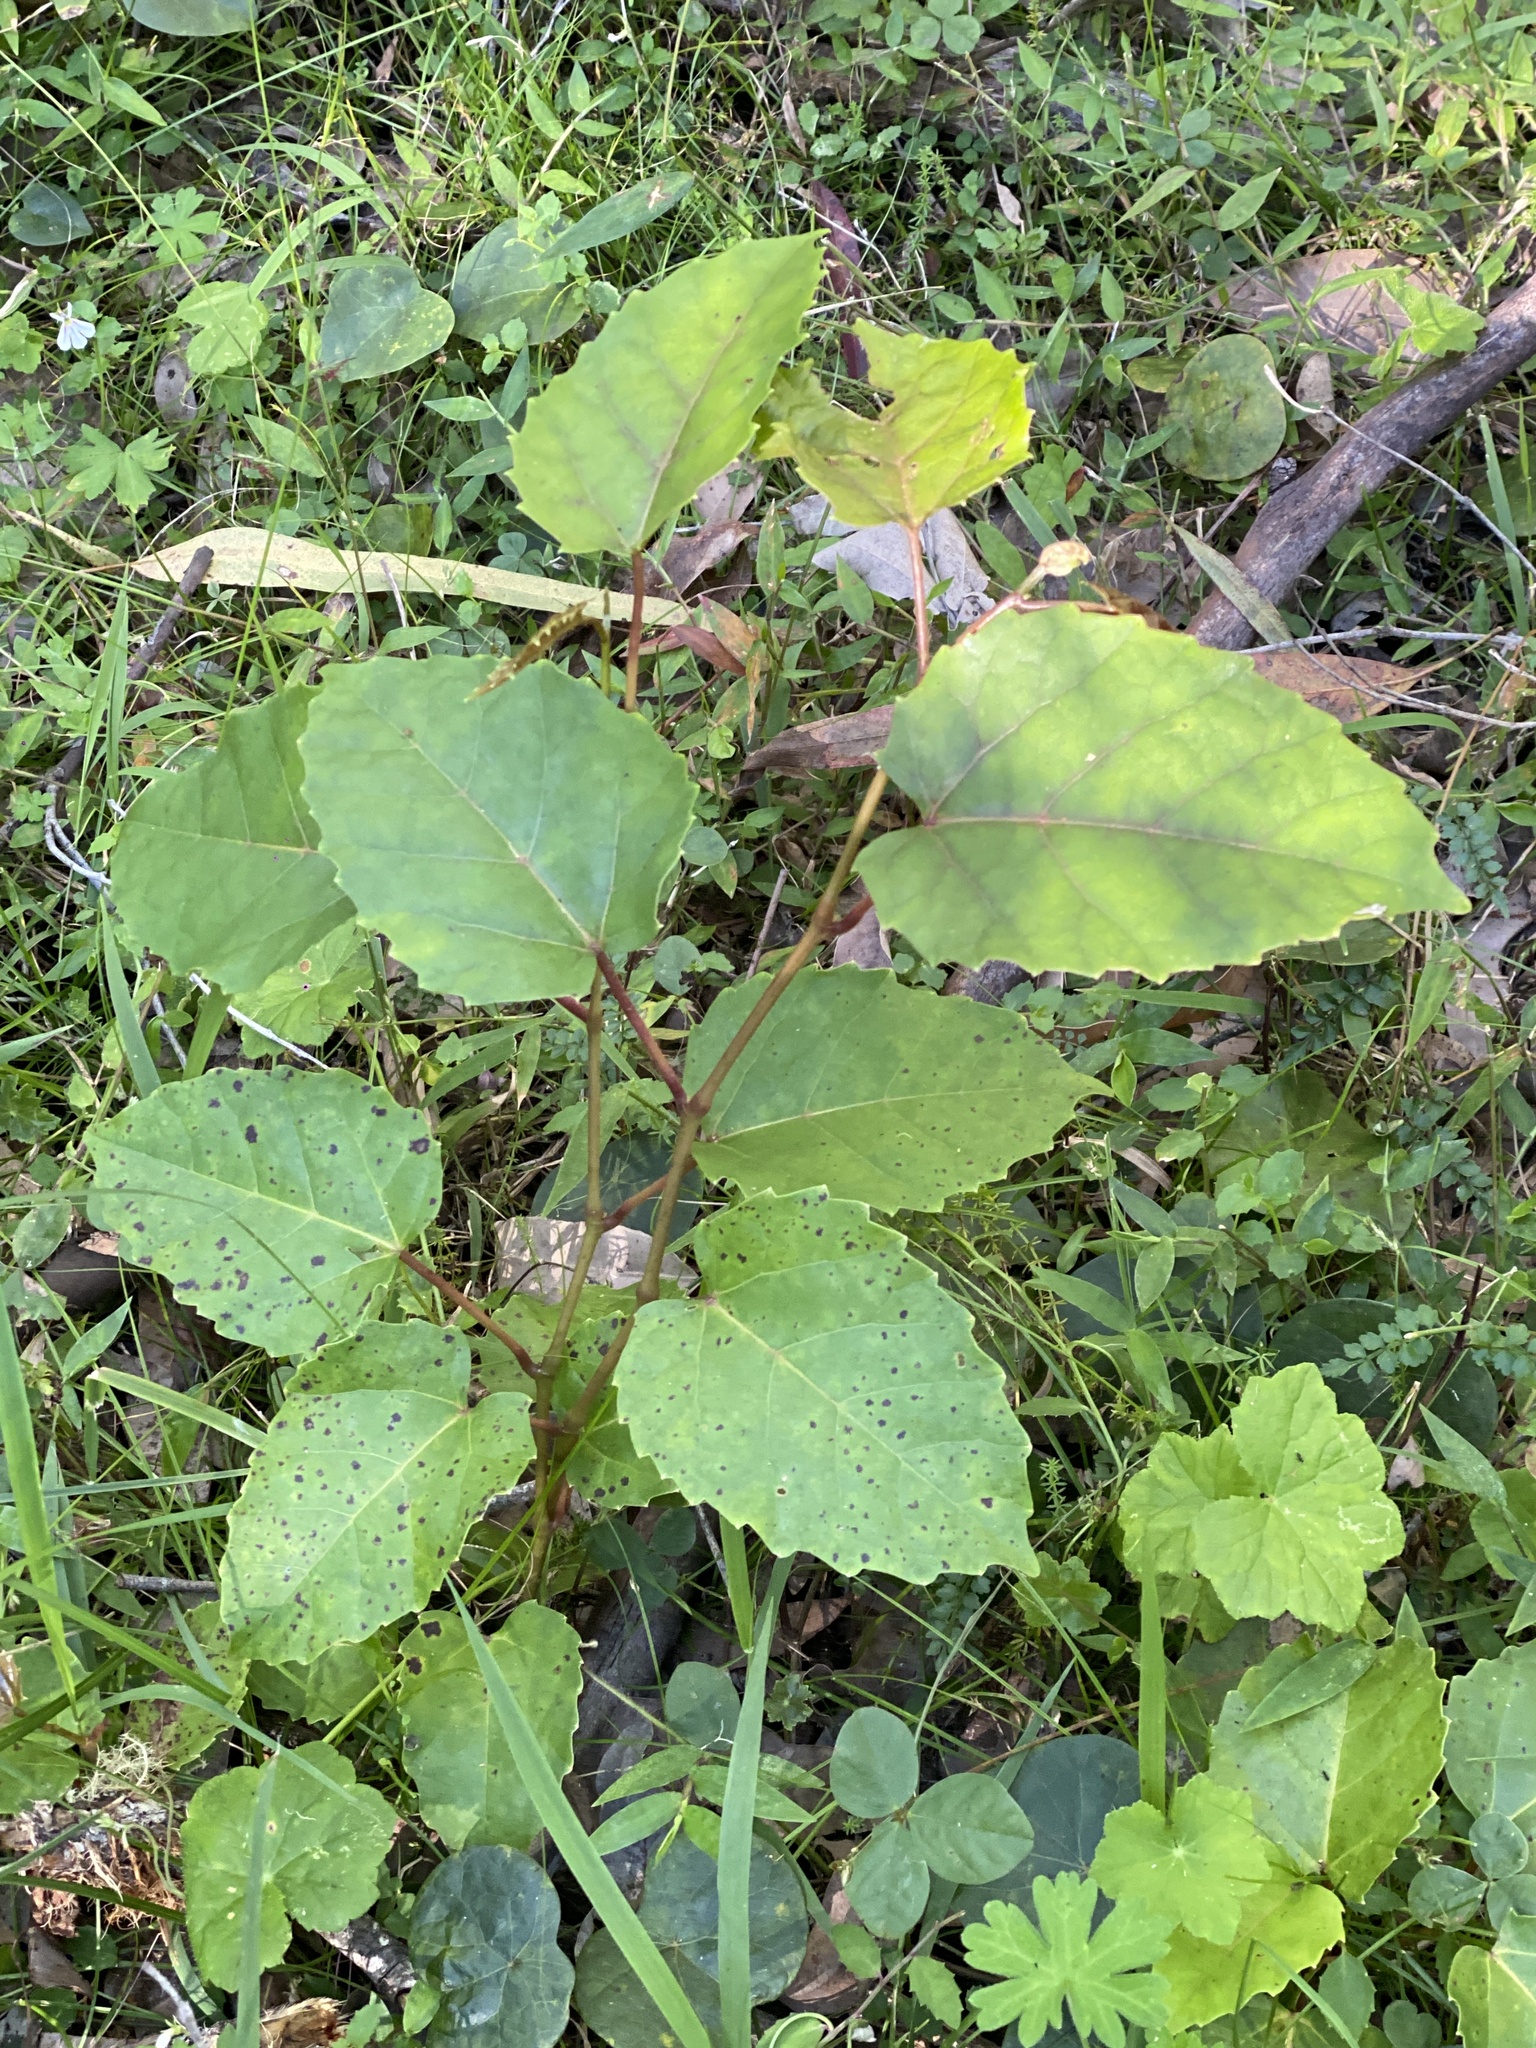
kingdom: Plantae
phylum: Tracheophyta
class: Magnoliopsida
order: Vitales
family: Vitaceae
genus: Cissus
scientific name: Cissus antarctica
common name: Kangaroo vine
